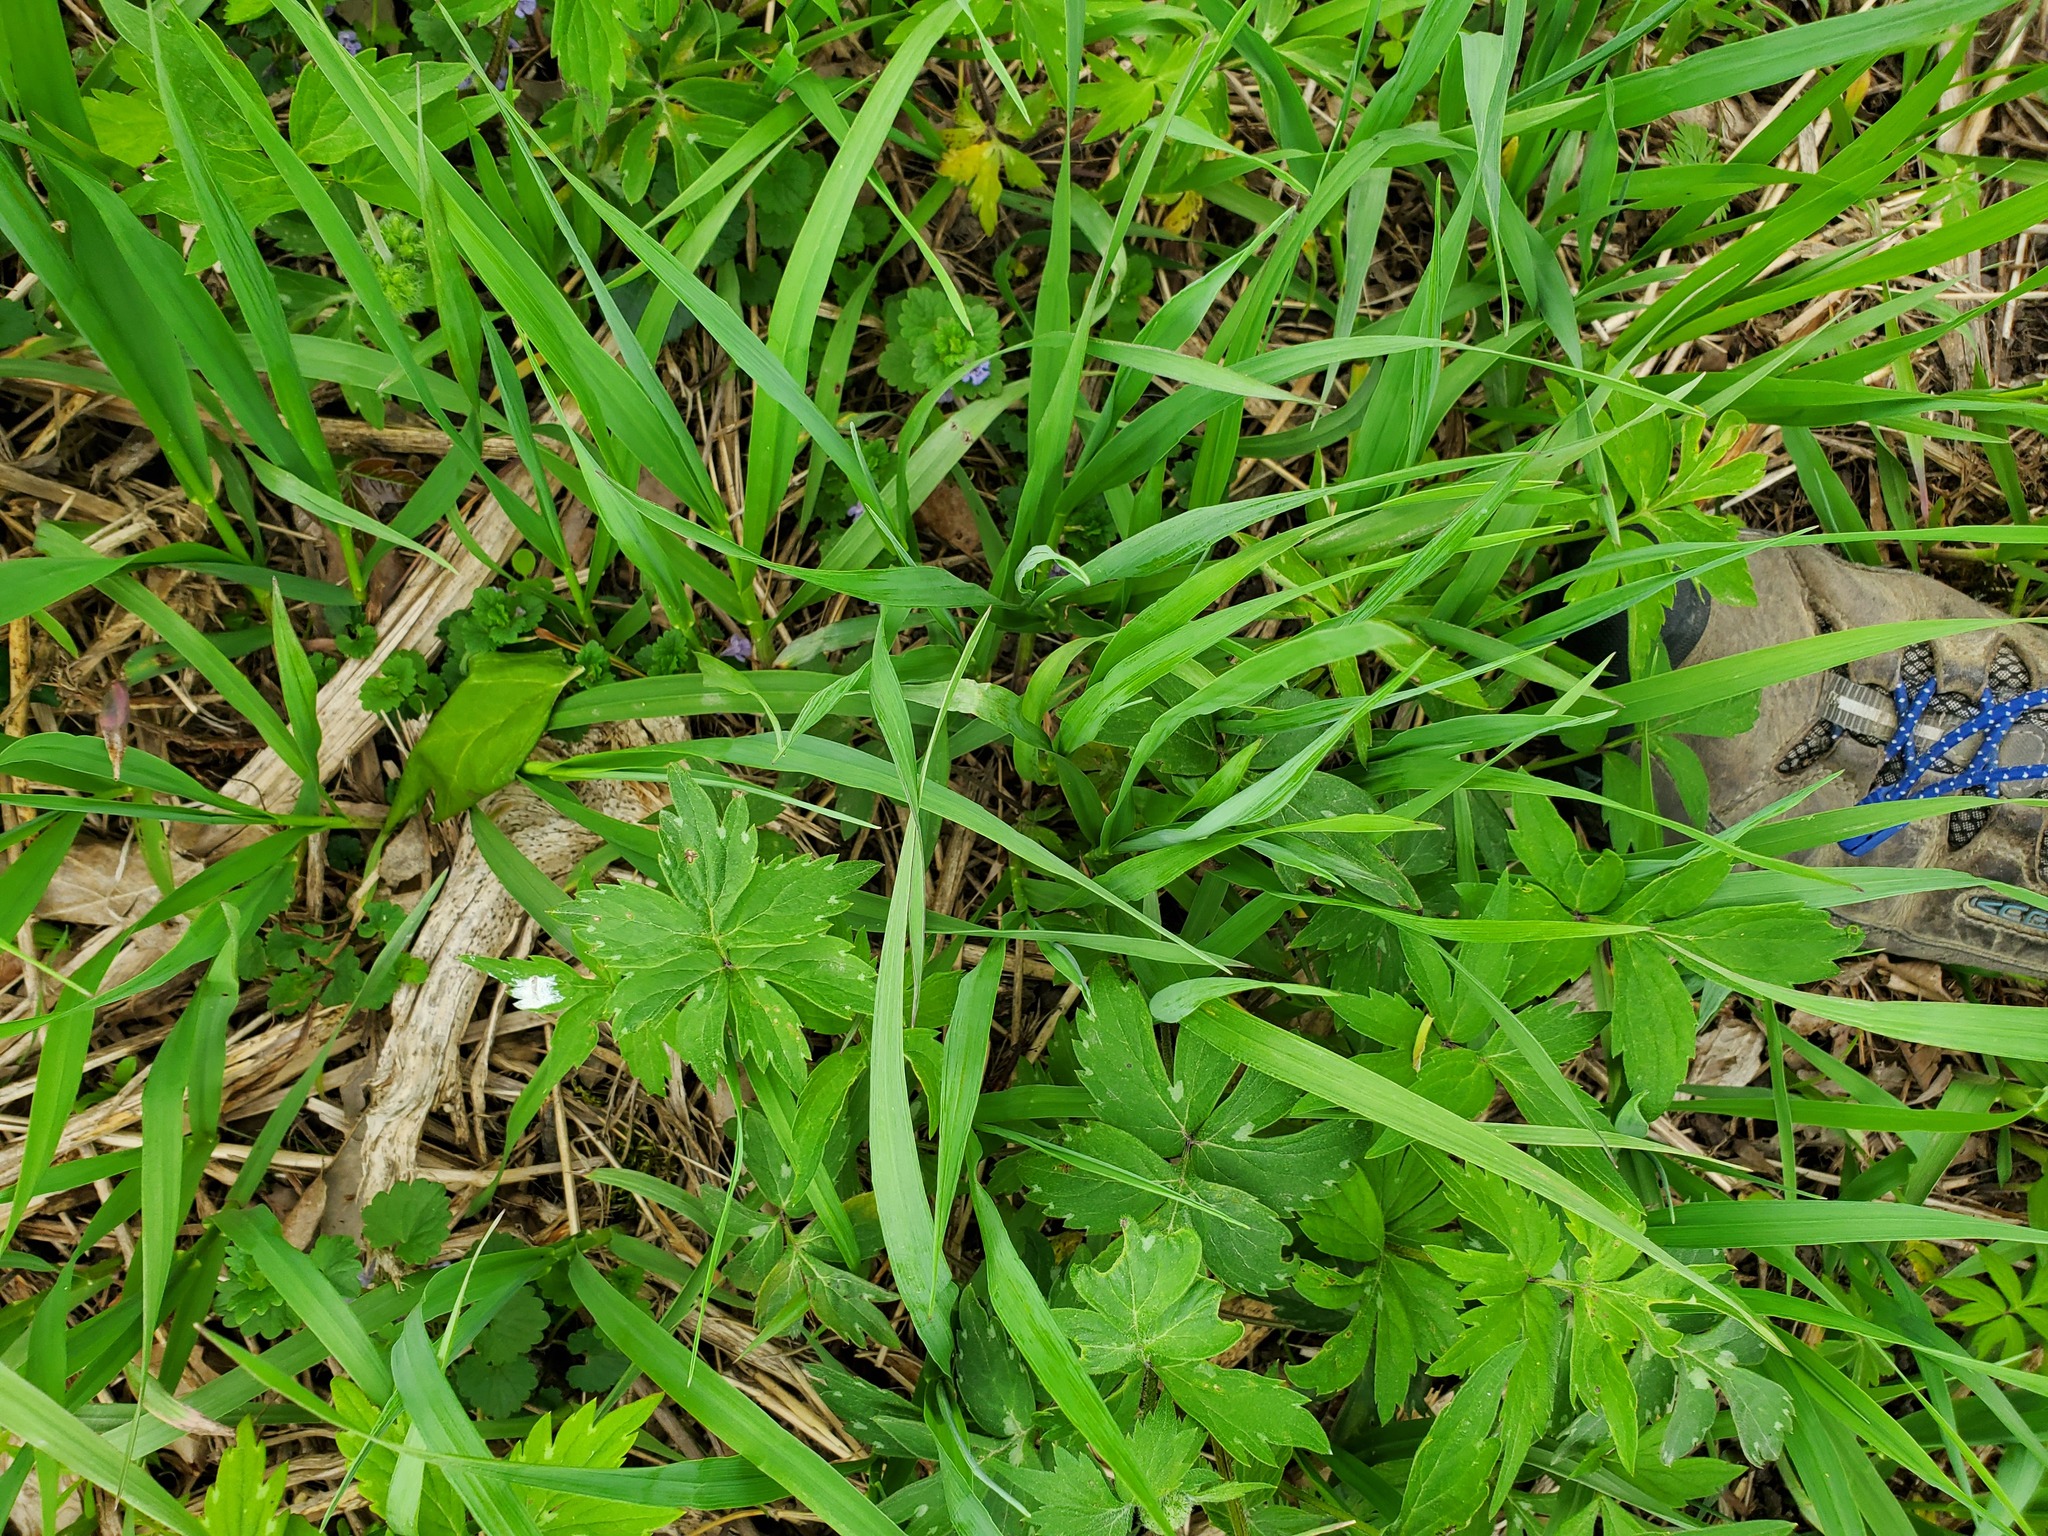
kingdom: Plantae
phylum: Tracheophyta
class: Magnoliopsida
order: Boraginales
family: Hydrophyllaceae
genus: Hydrophyllum
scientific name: Hydrophyllum virginianum
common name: Virginia waterleaf
